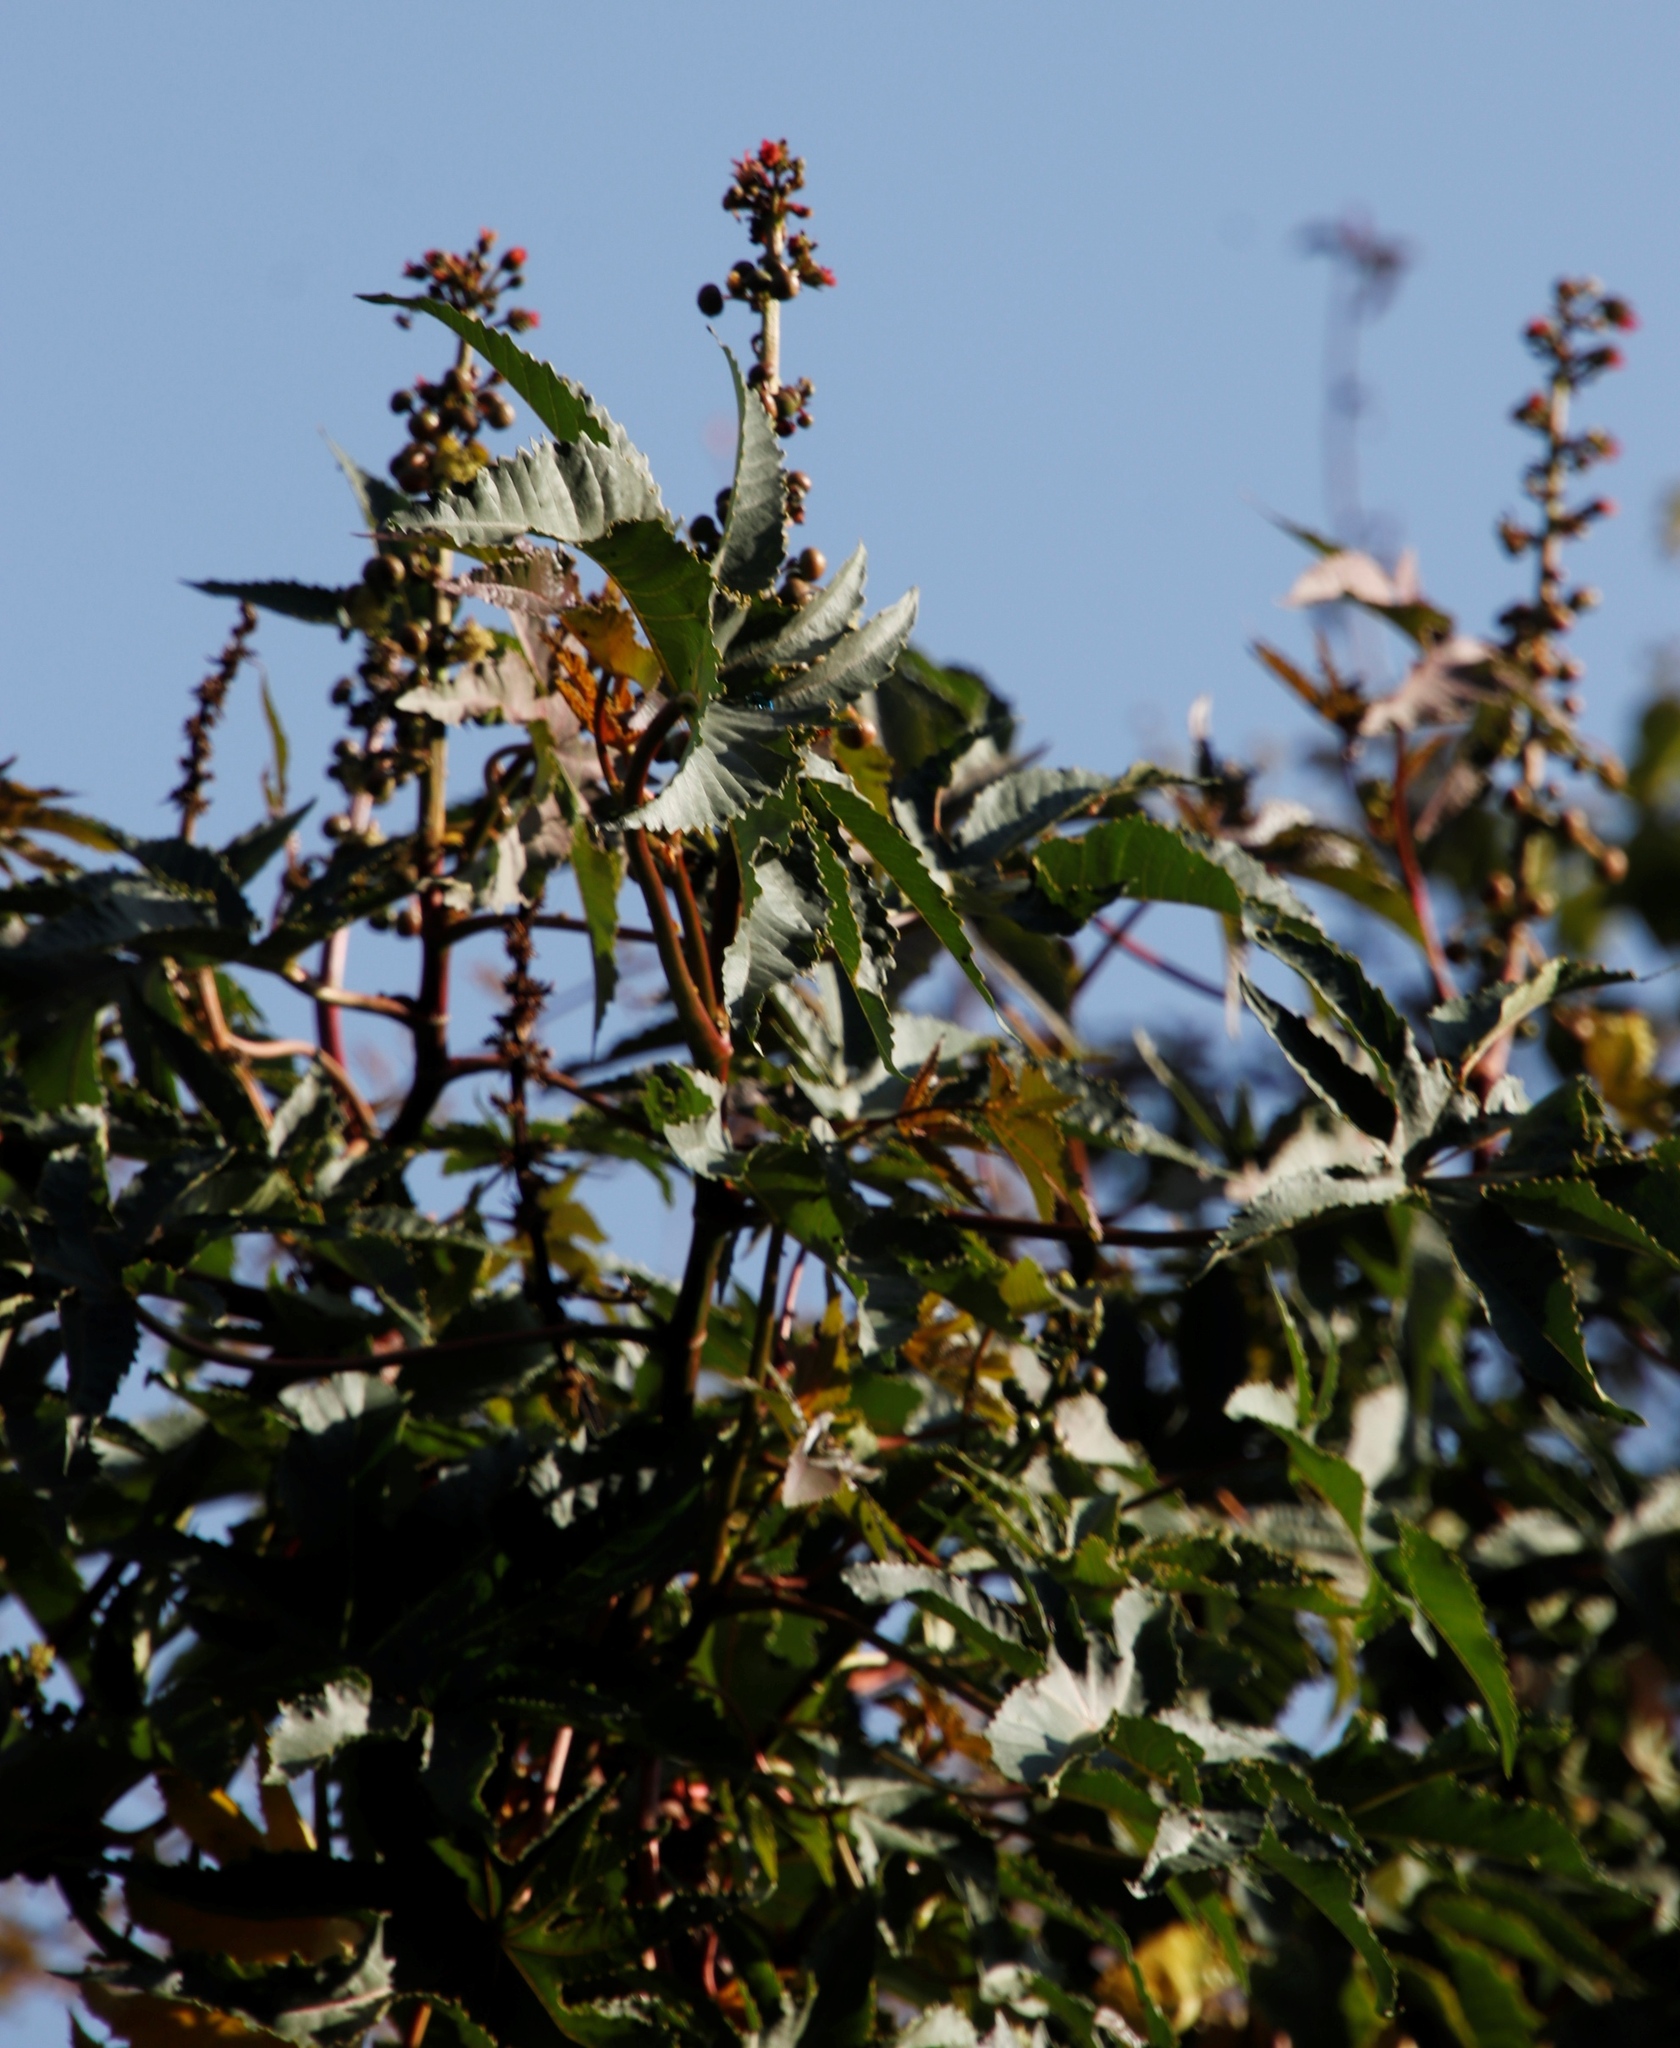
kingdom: Plantae
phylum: Tracheophyta
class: Magnoliopsida
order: Malpighiales
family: Euphorbiaceae
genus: Ricinus
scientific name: Ricinus communis
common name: Castor-oil-plant
